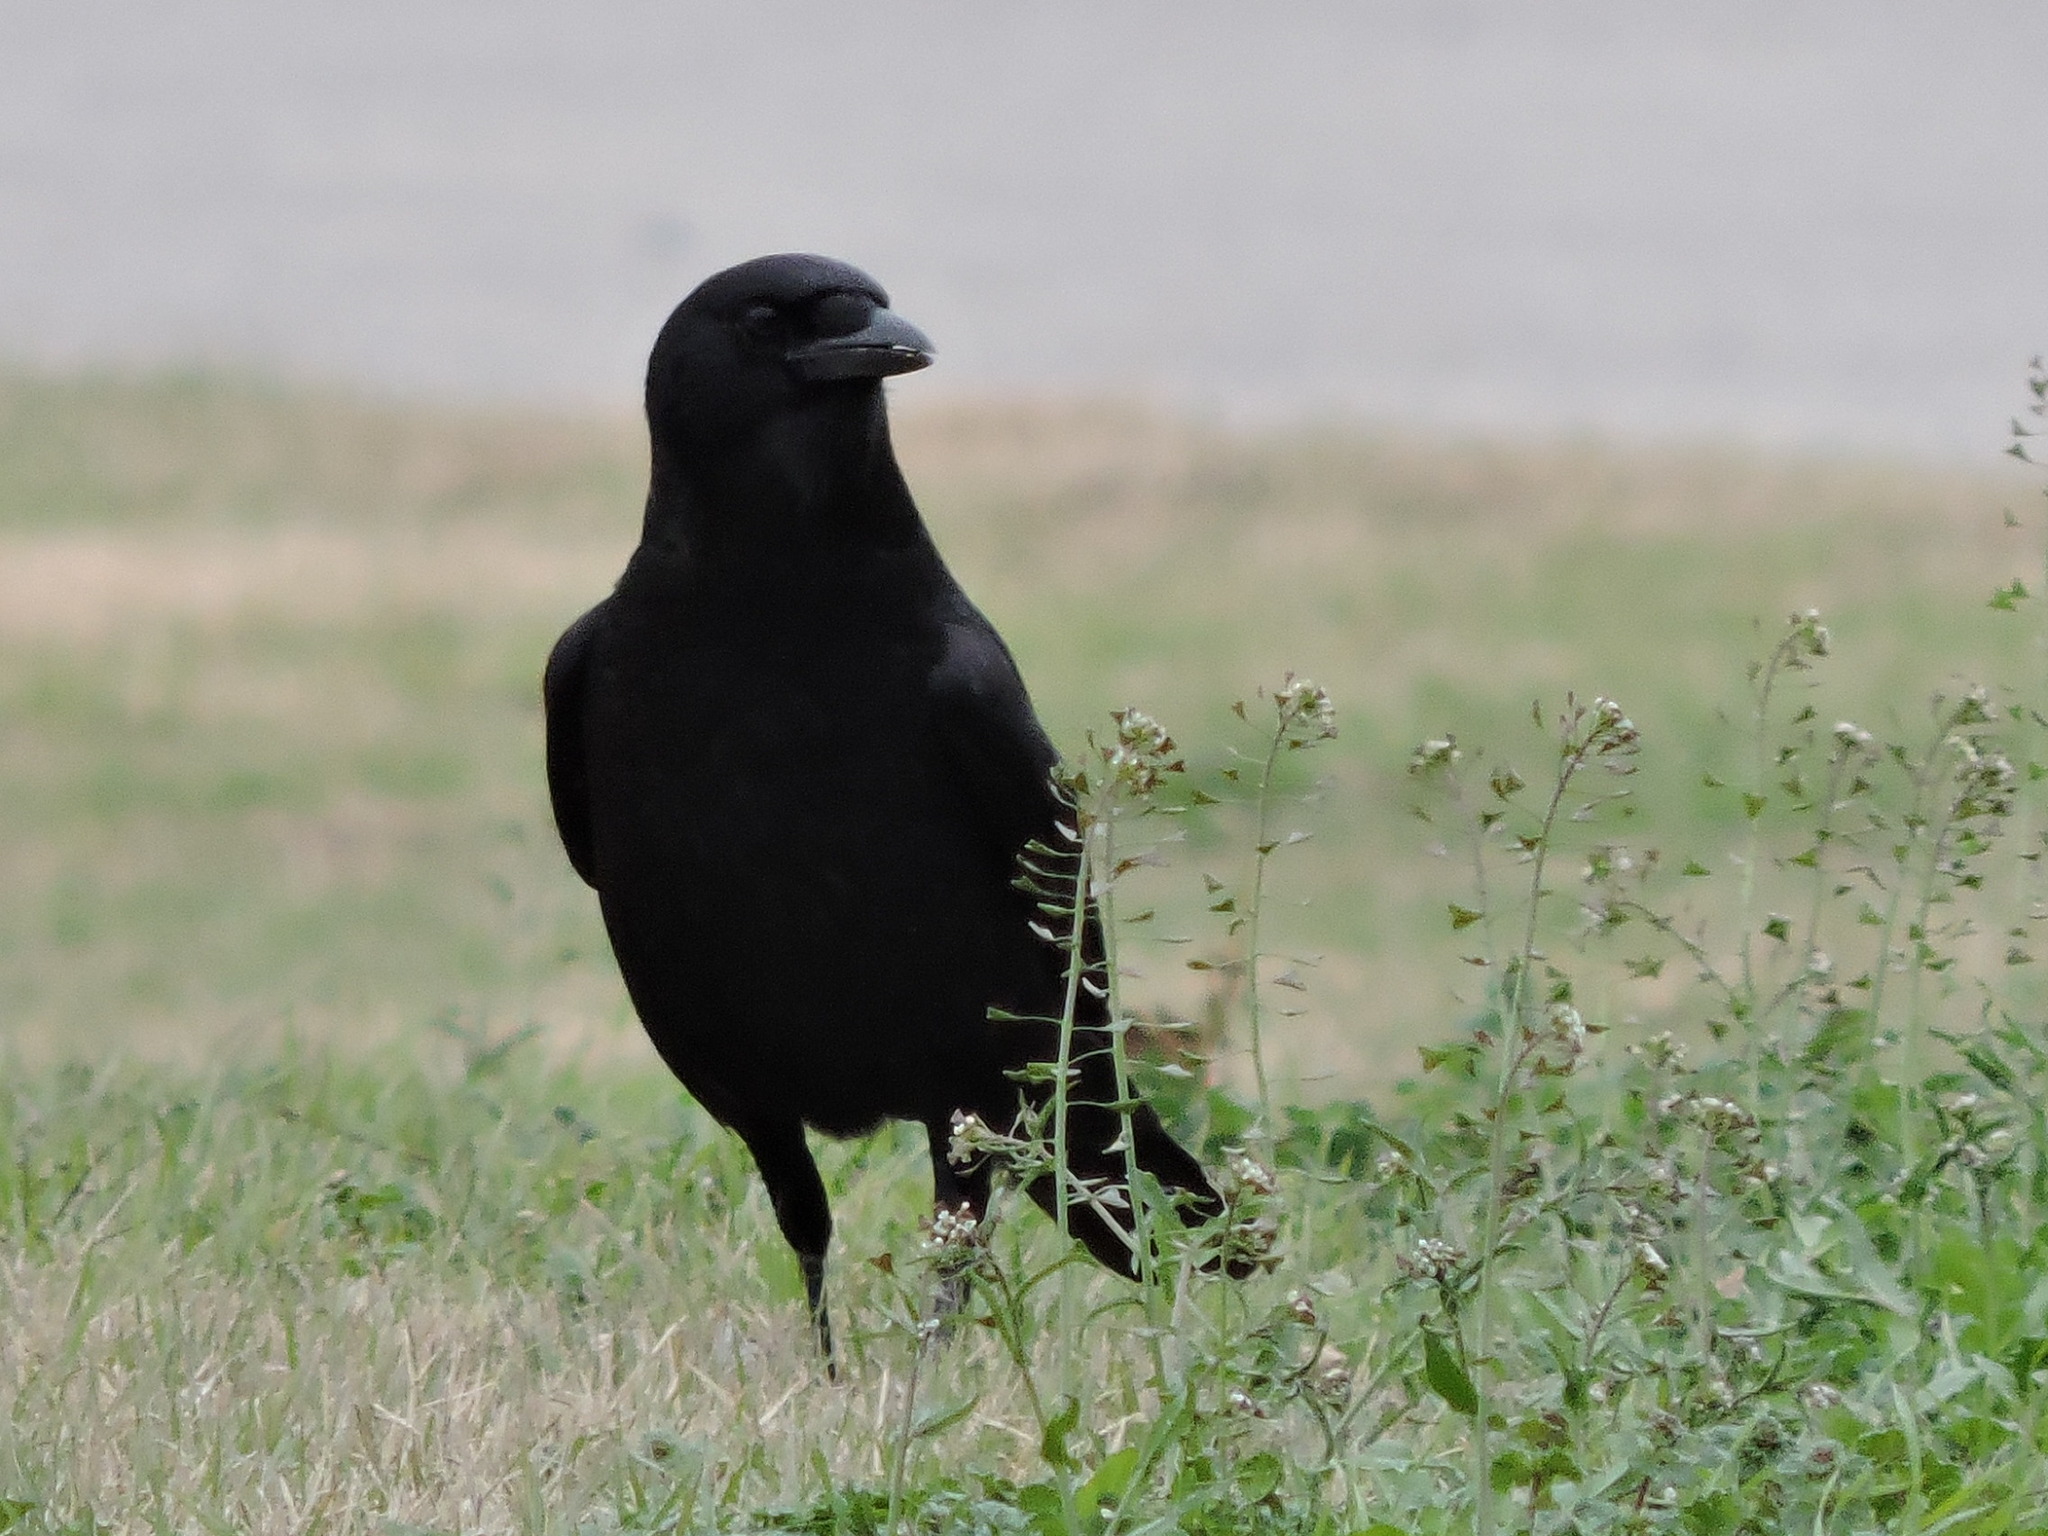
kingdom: Animalia
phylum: Chordata
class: Aves
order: Passeriformes
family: Corvidae
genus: Corvus
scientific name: Corvus brachyrhynchos
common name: American crow
